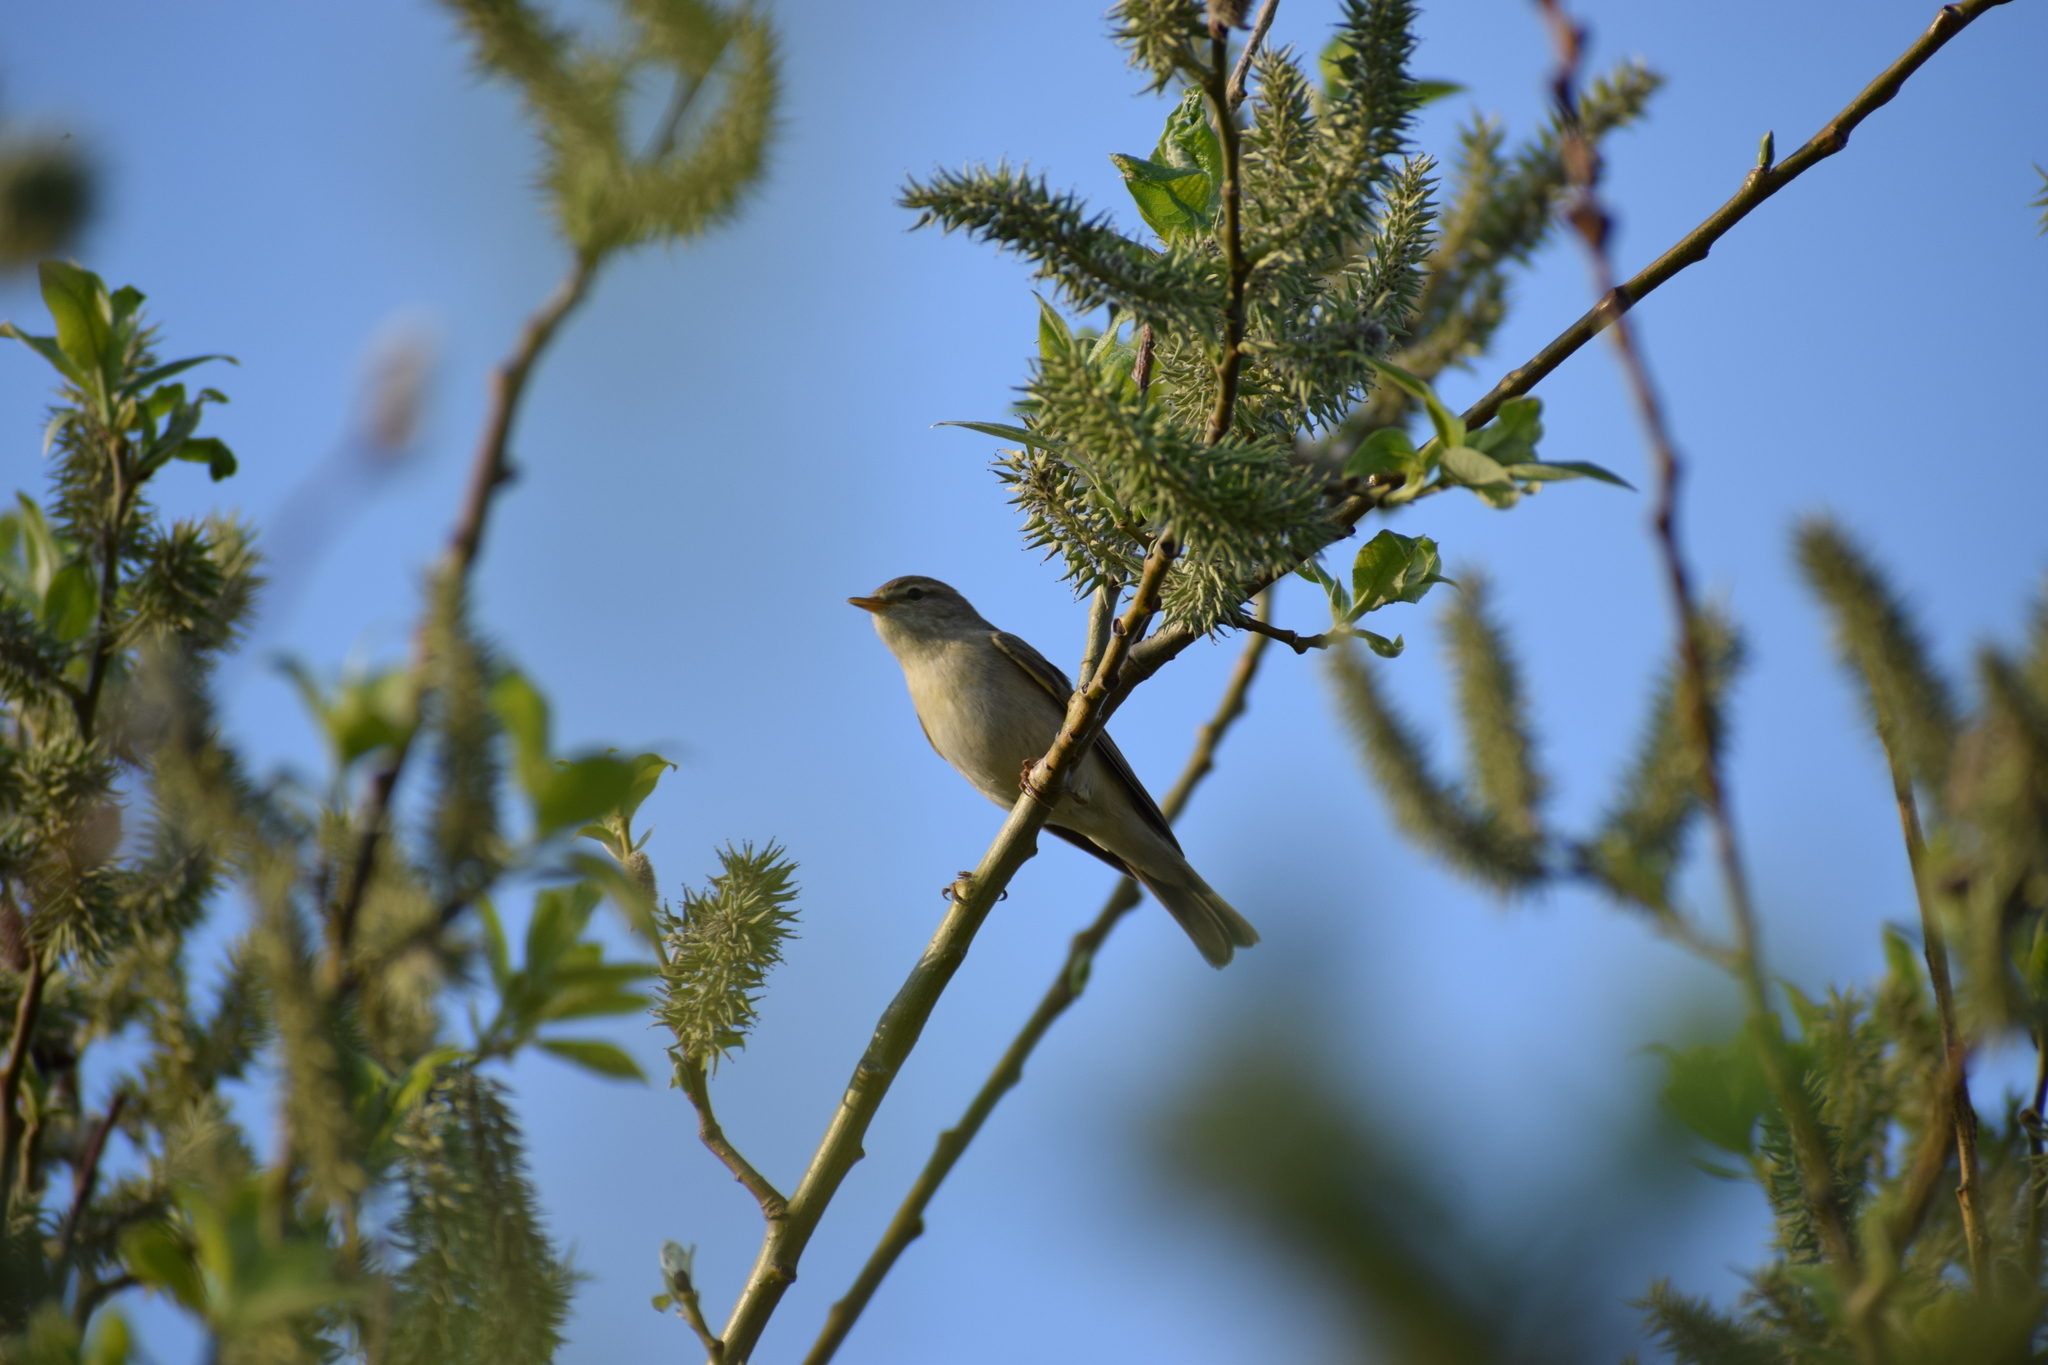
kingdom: Animalia
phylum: Chordata
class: Aves
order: Passeriformes
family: Phylloscopidae
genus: Phylloscopus
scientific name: Phylloscopus trochilus
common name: Willow warbler
